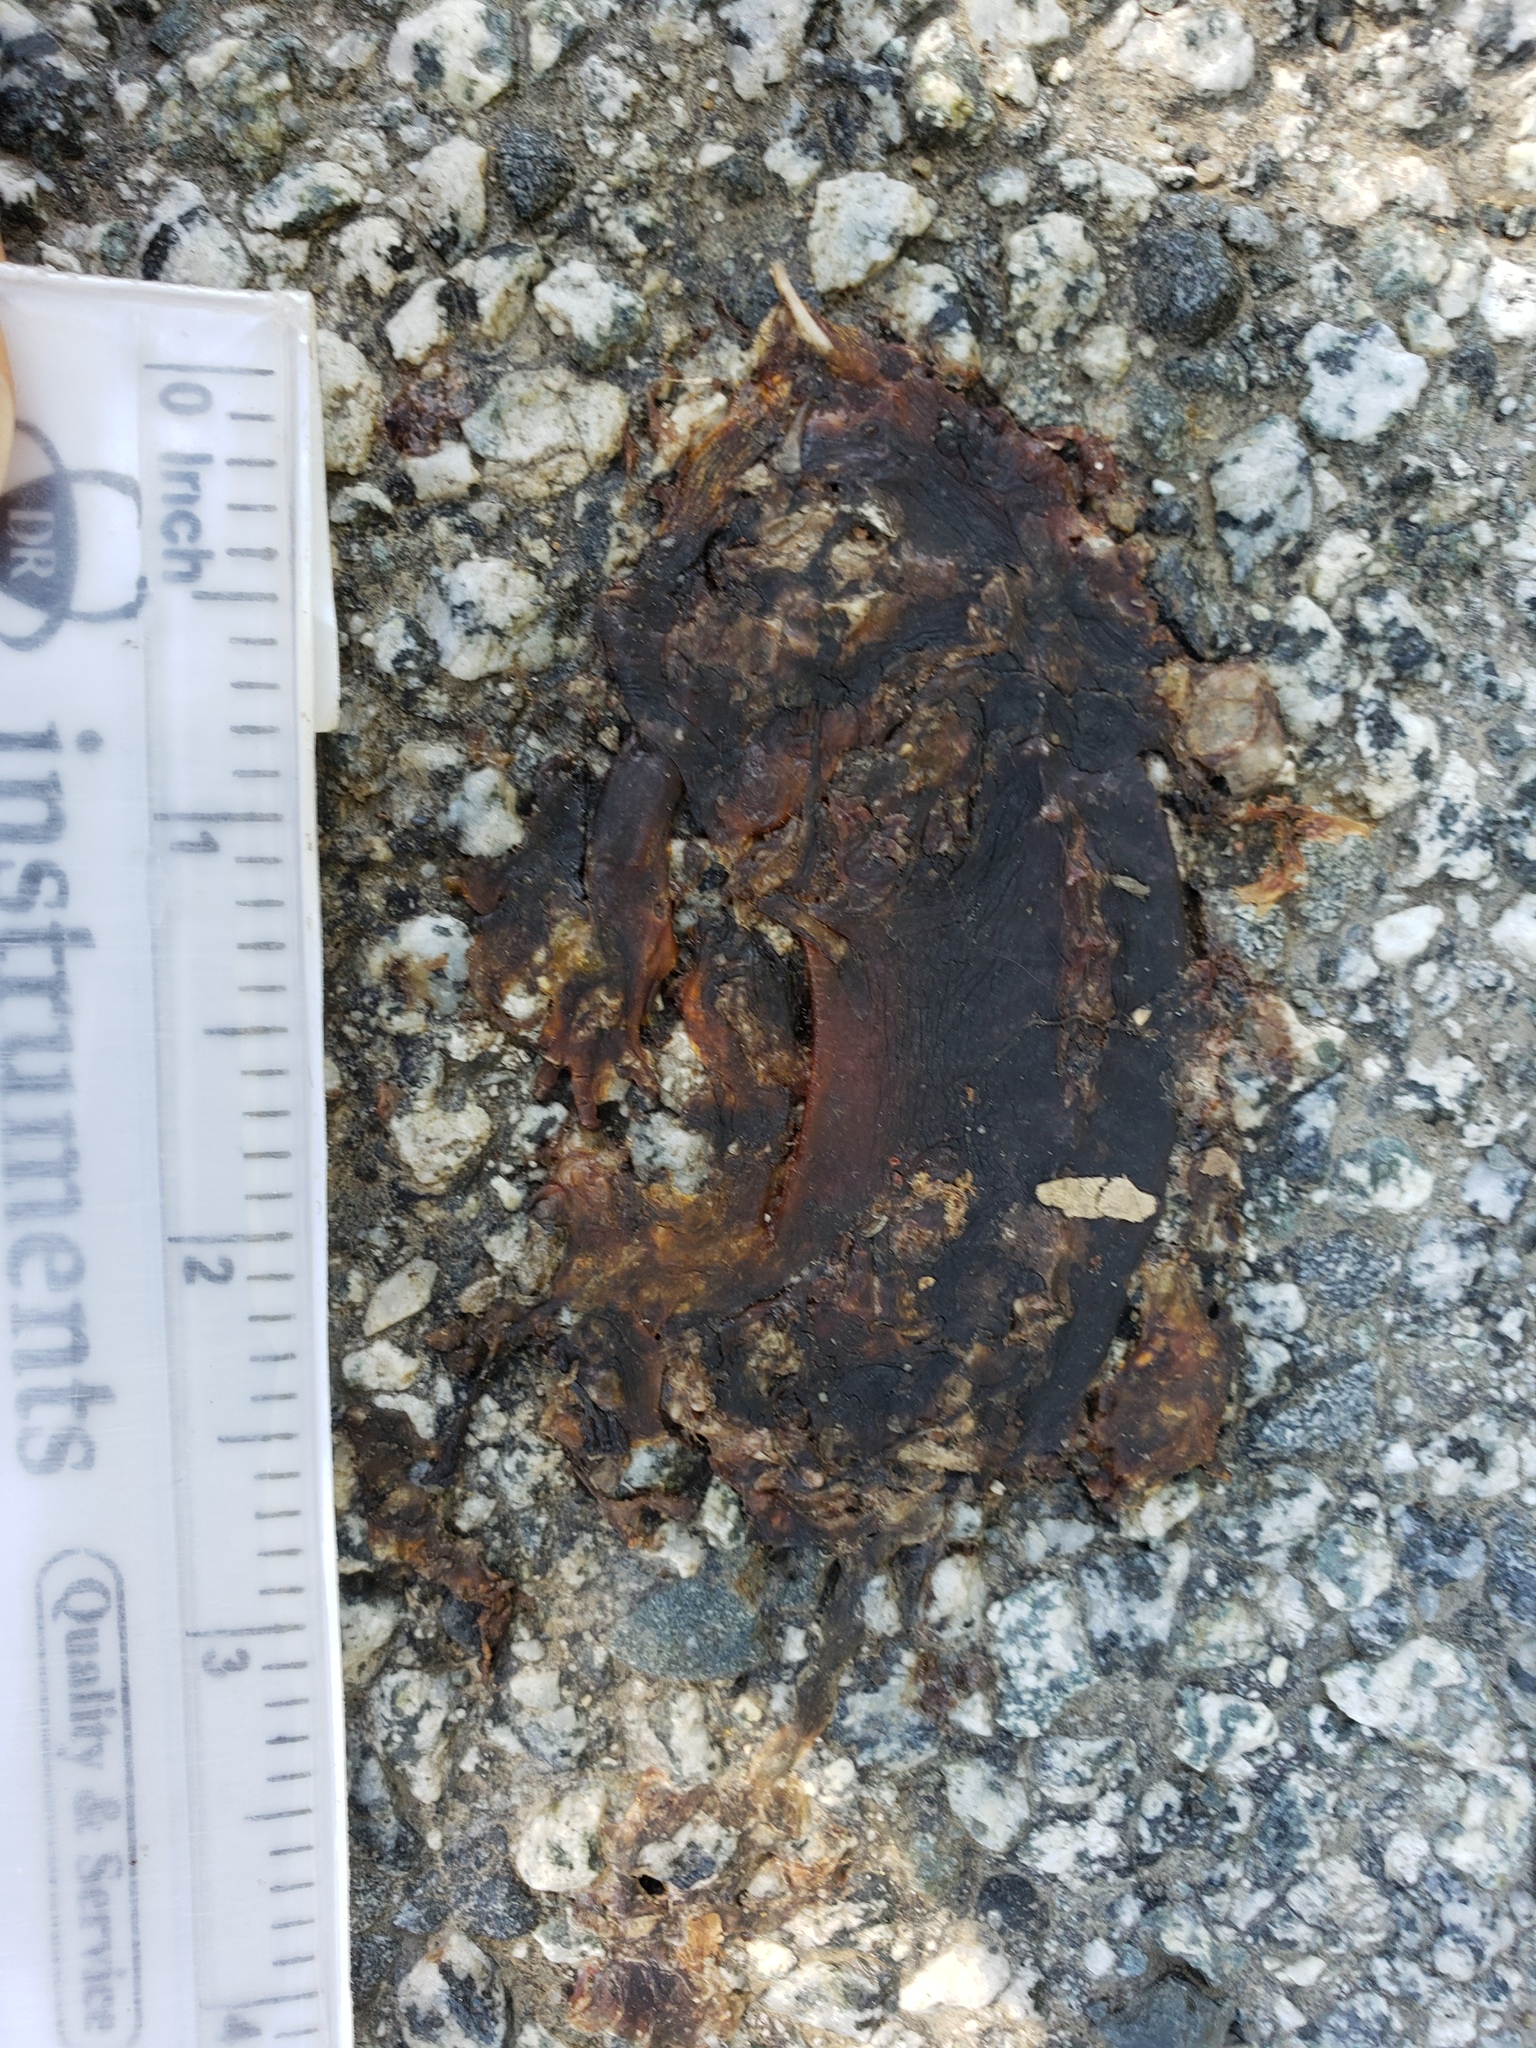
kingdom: Animalia
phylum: Chordata
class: Amphibia
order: Caudata
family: Salamandridae
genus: Taricha
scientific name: Taricha
